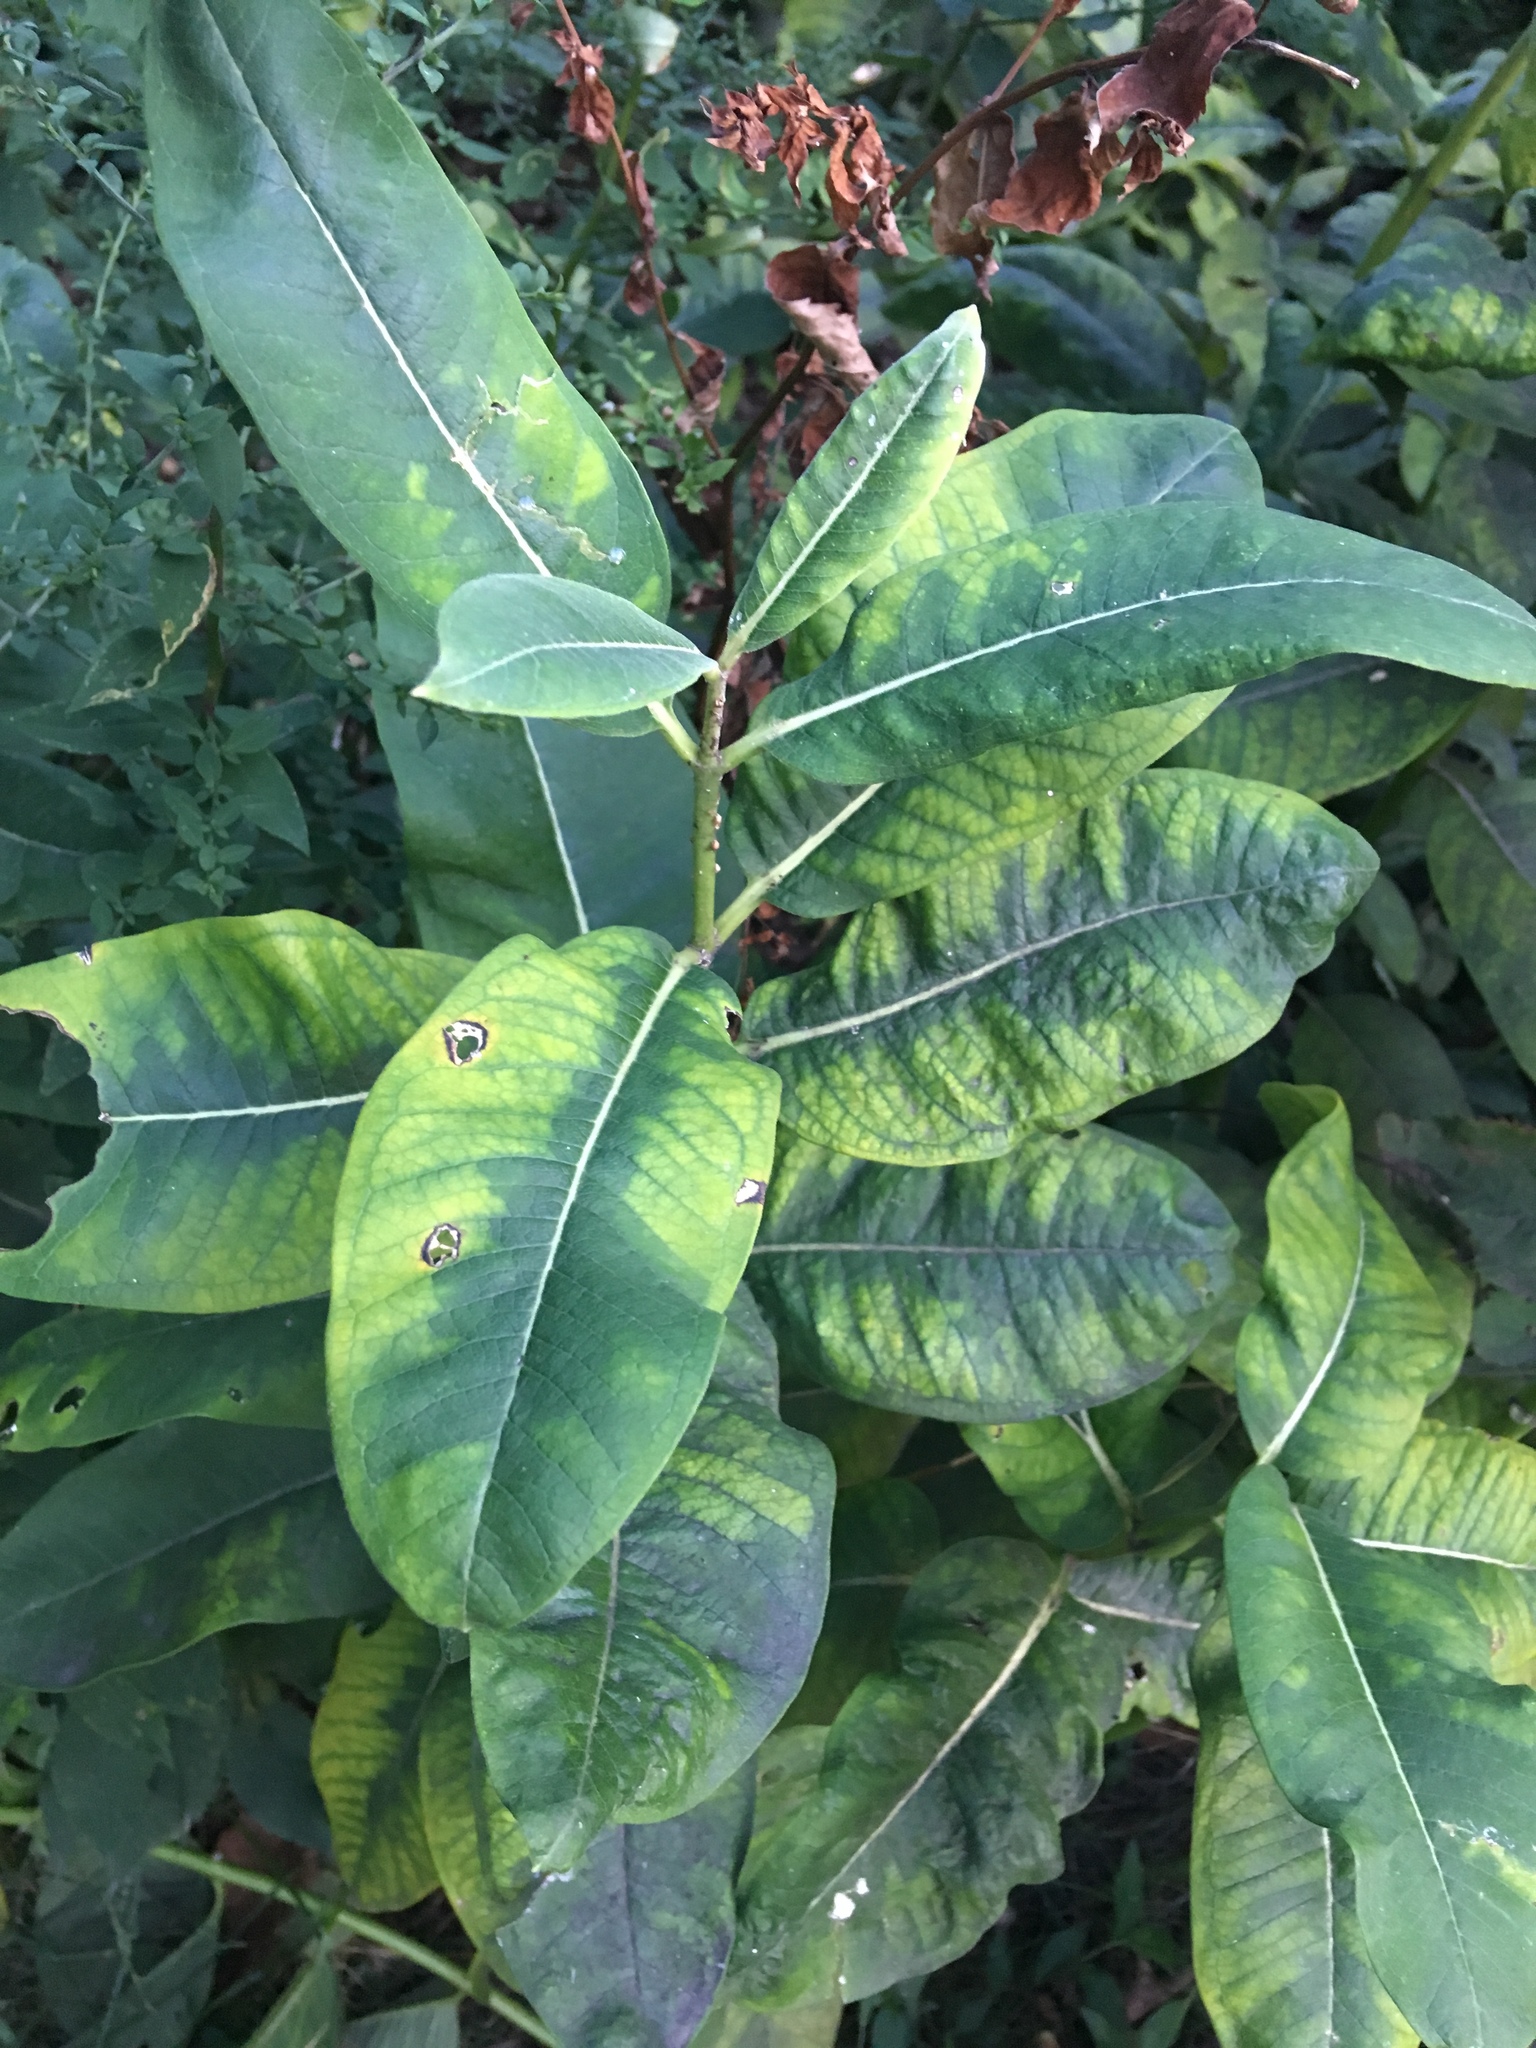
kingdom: Plantae
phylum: Tracheophyta
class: Magnoliopsida
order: Gentianales
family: Apocynaceae
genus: Asclepias
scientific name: Asclepias syriaca
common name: Common milkweed
